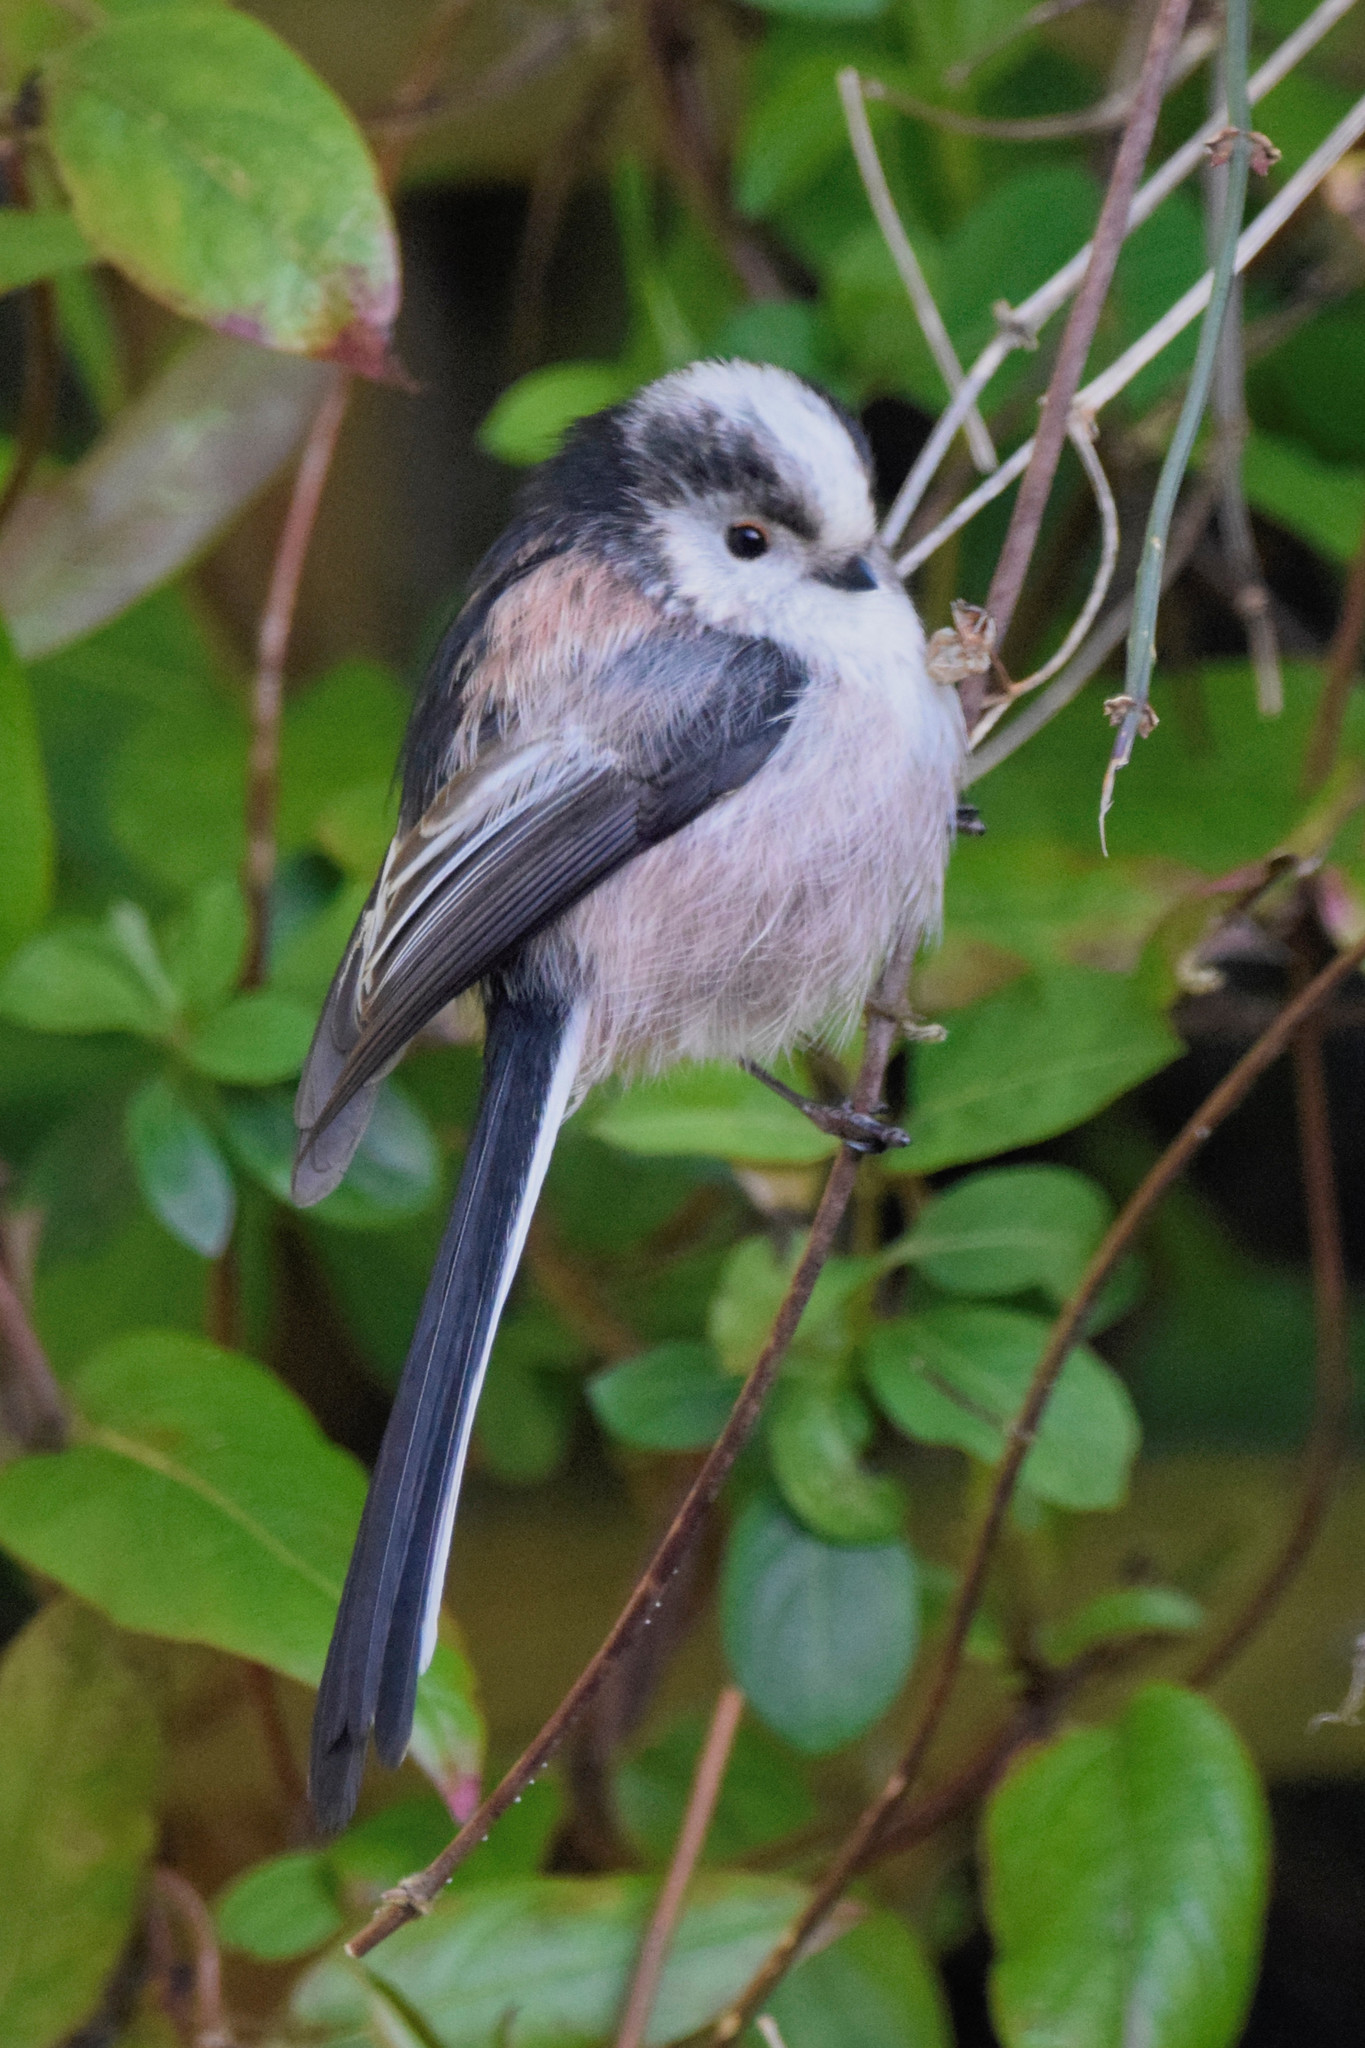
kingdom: Animalia
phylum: Chordata
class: Aves
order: Passeriformes
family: Aegithalidae
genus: Aegithalos
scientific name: Aegithalos caudatus
